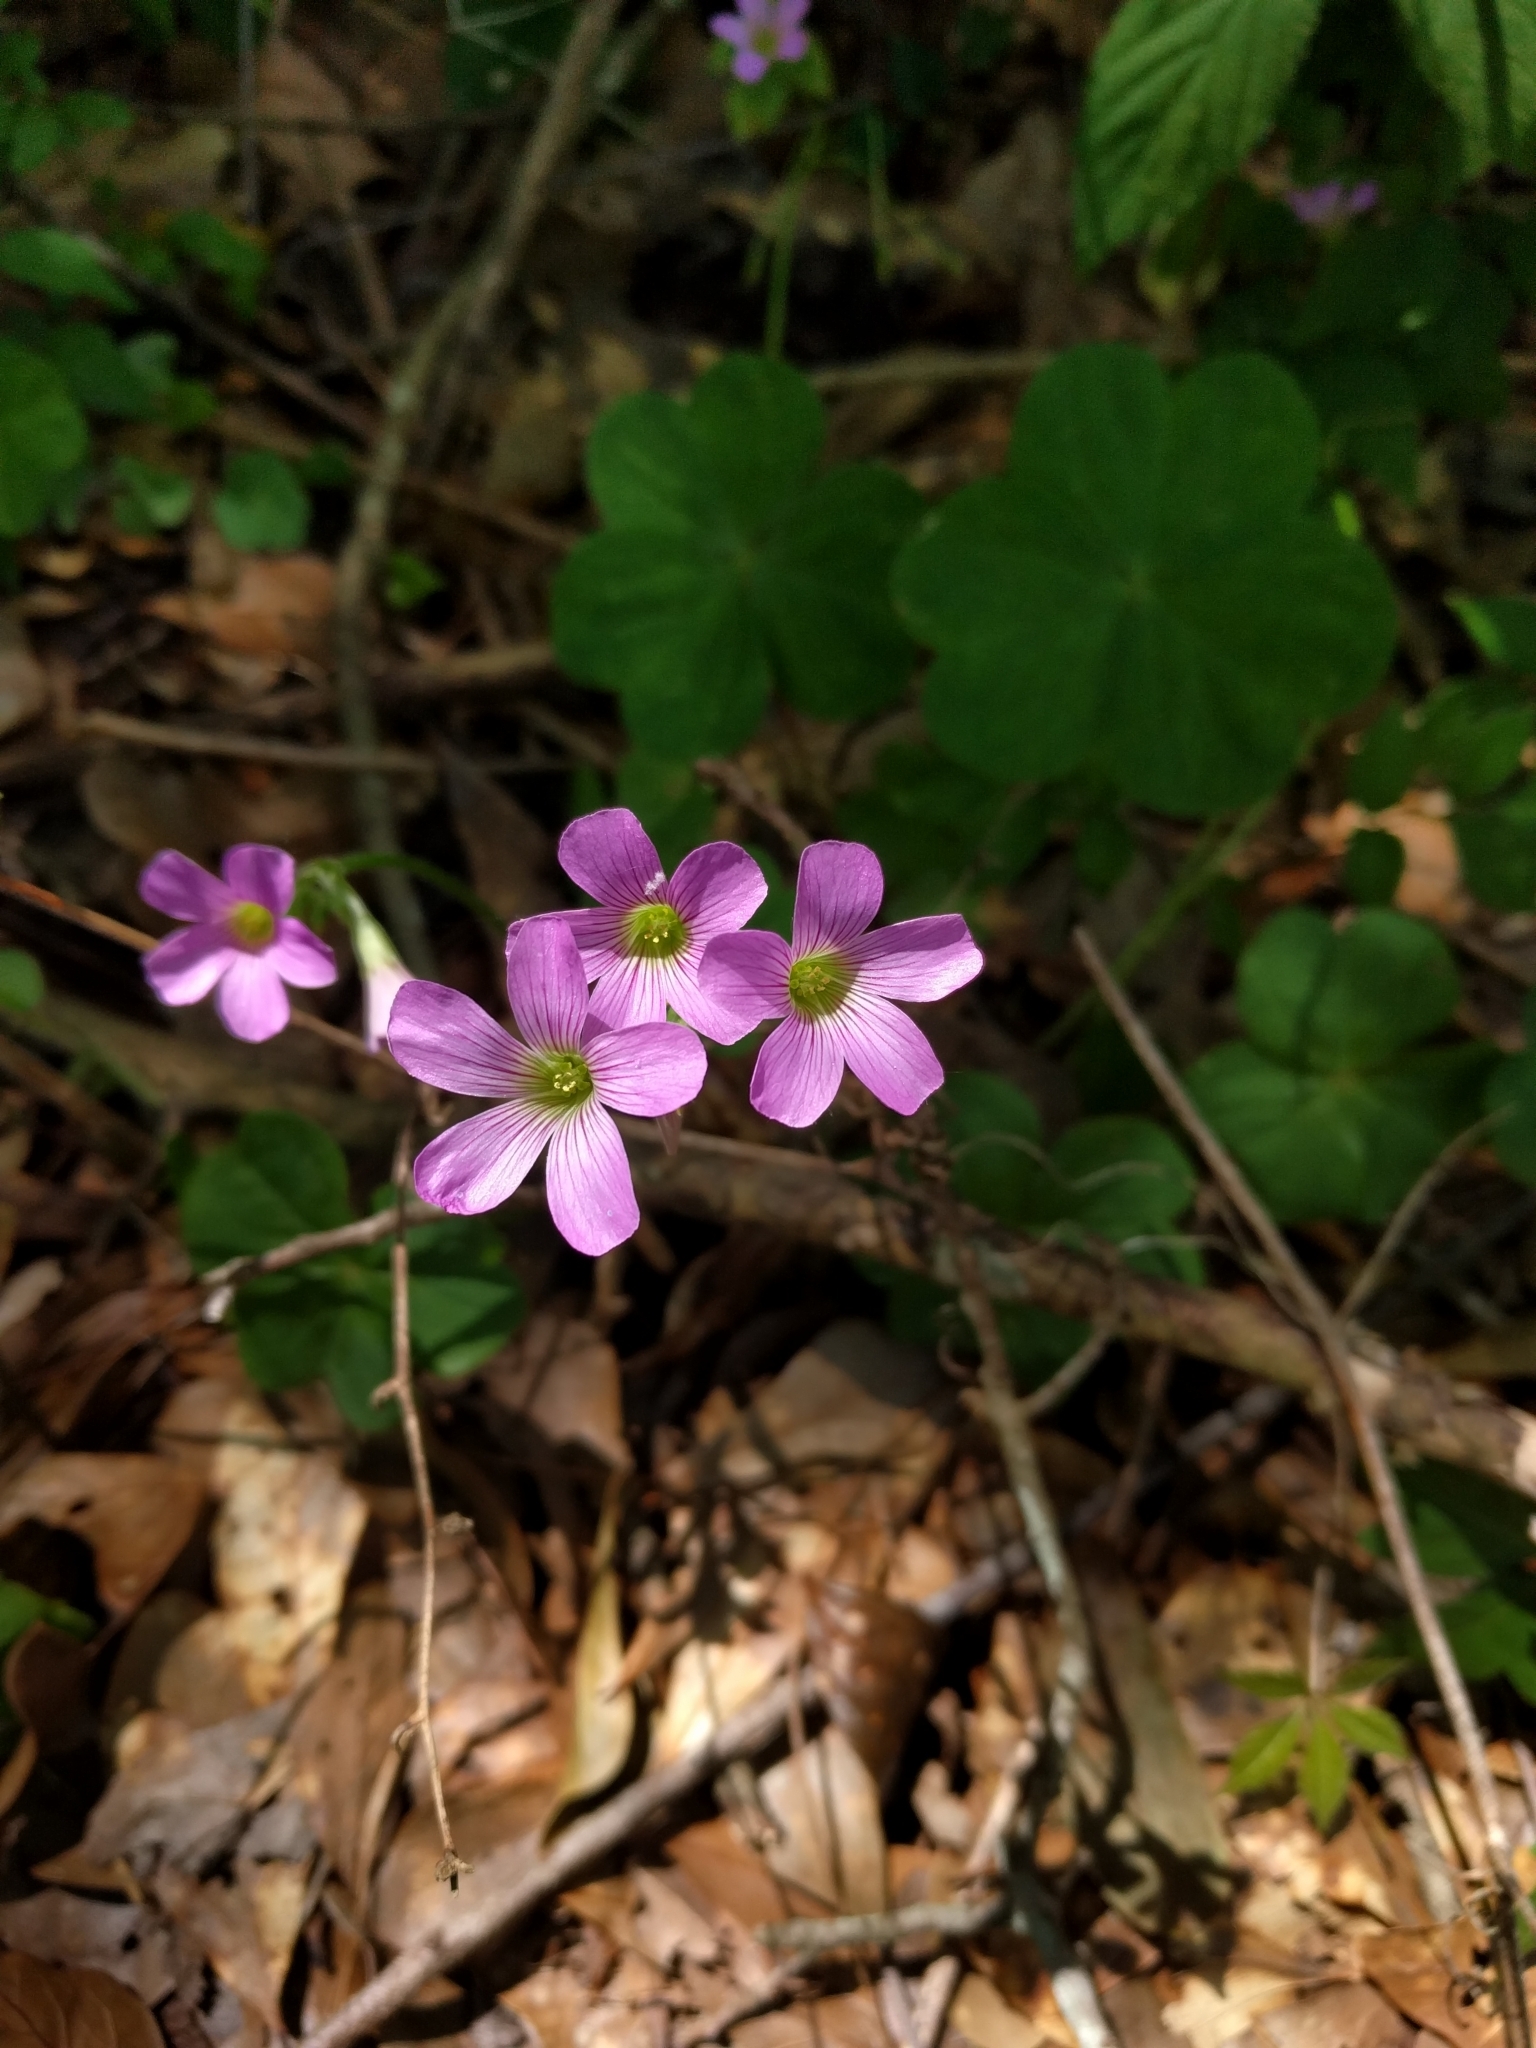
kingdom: Plantae
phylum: Tracheophyta
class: Magnoliopsida
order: Oxalidales
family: Oxalidaceae
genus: Oxalis
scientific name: Oxalis debilis
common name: Large-flowered pink-sorrel
